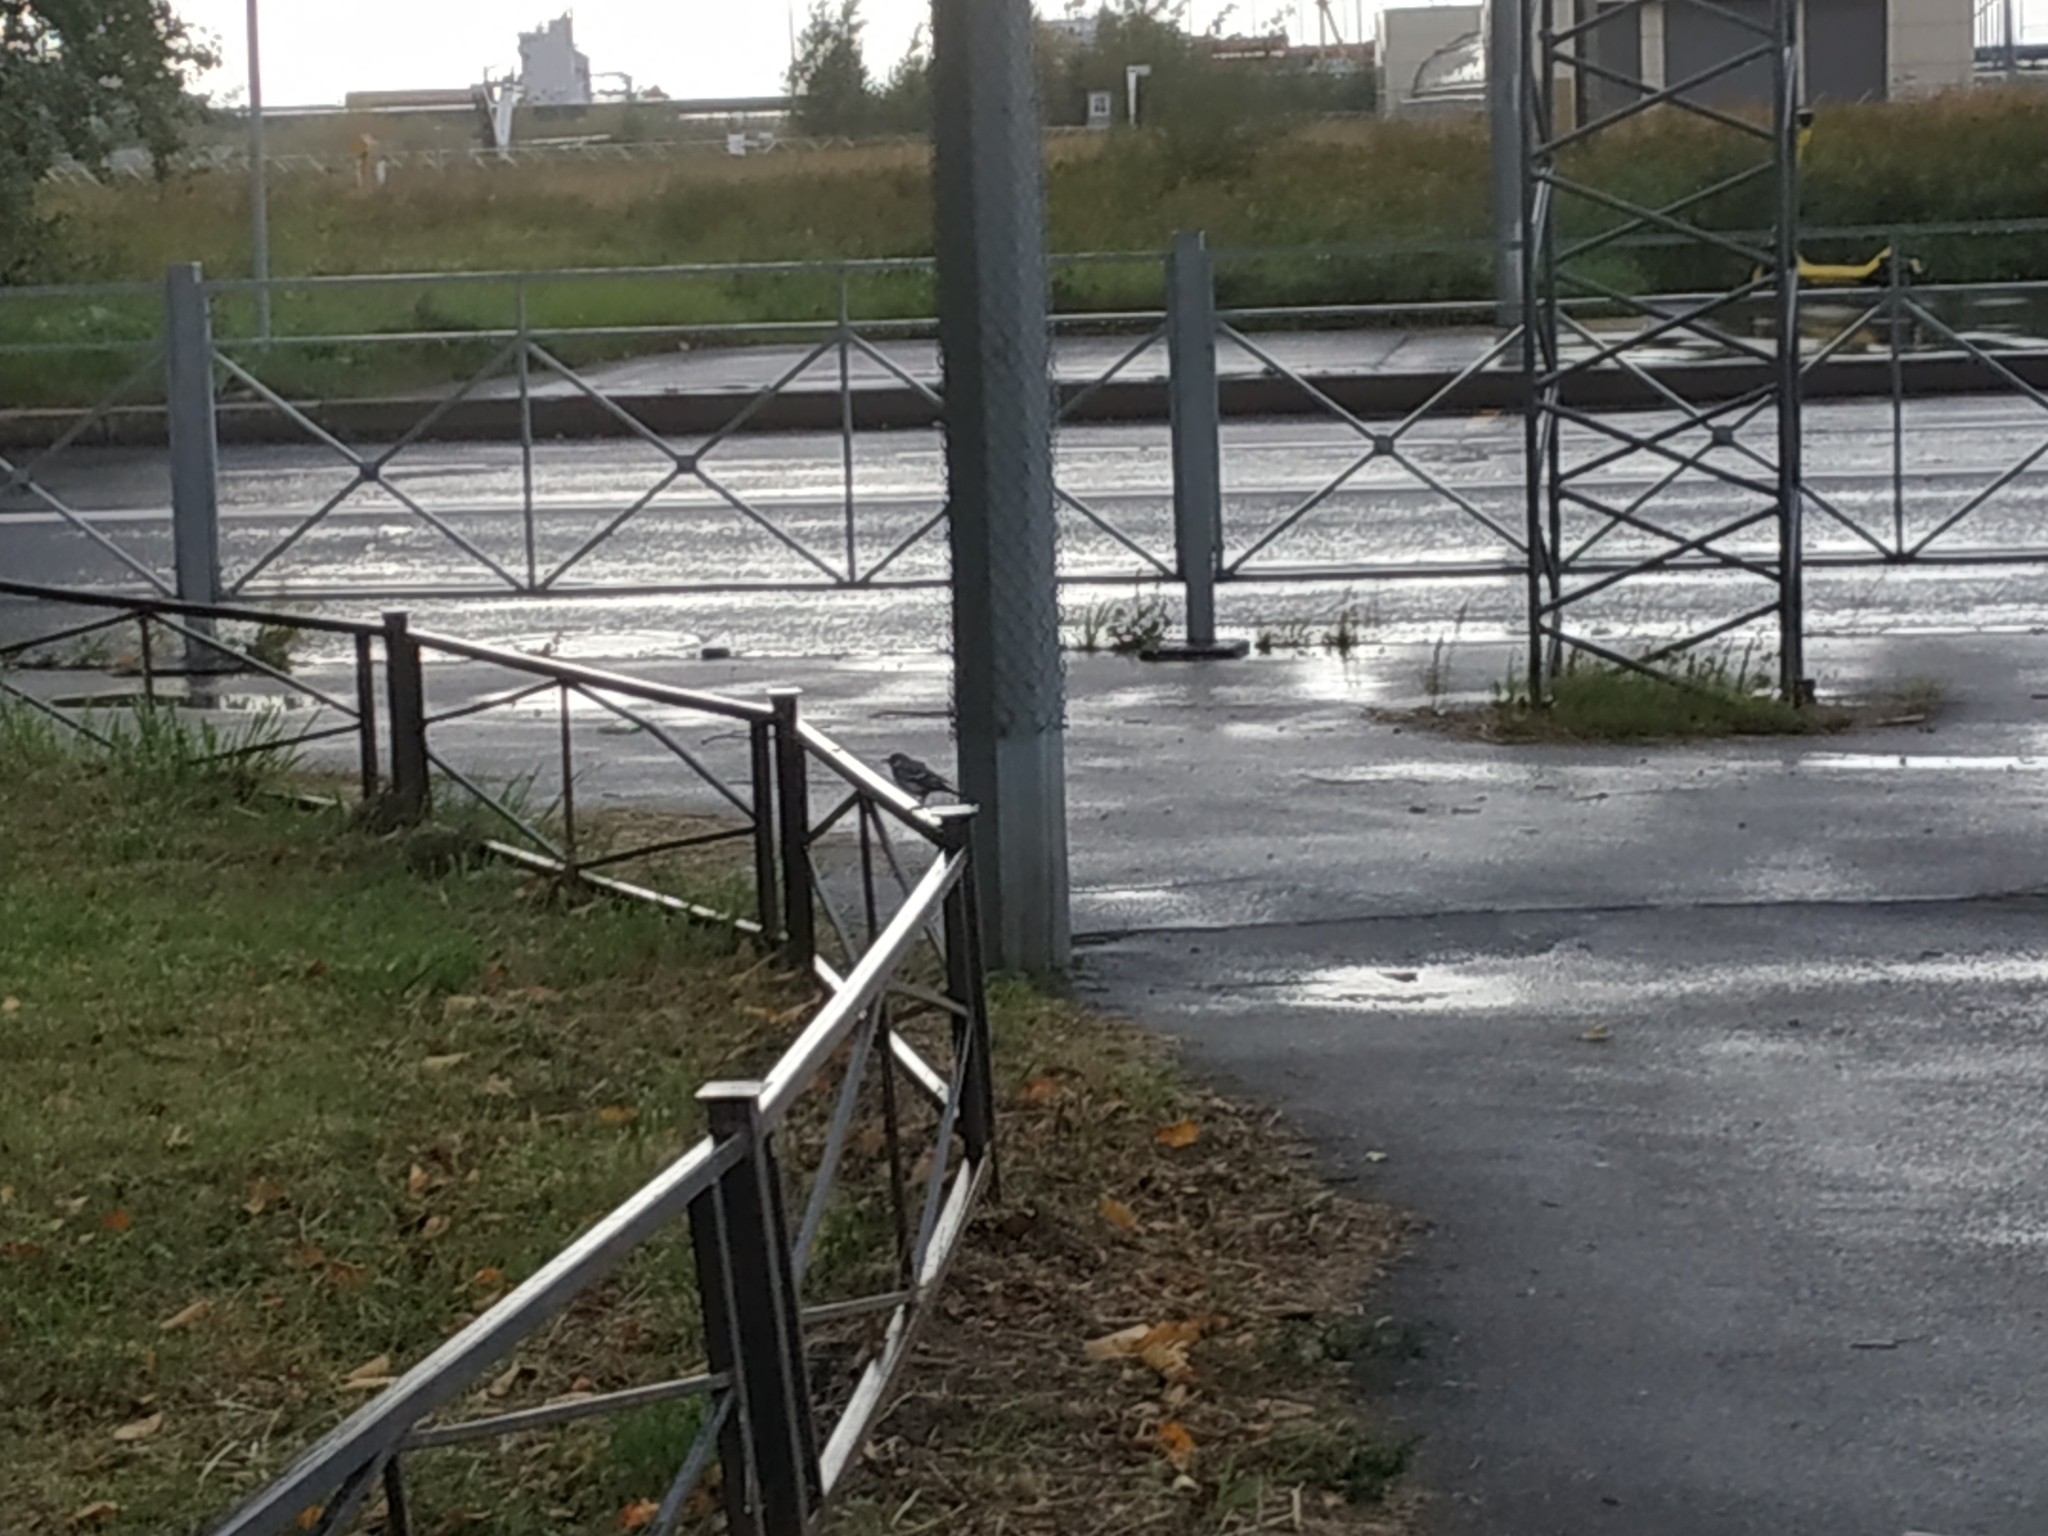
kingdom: Animalia
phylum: Chordata
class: Aves
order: Passeriformes
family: Motacillidae
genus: Motacilla
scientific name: Motacilla alba
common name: White wagtail
